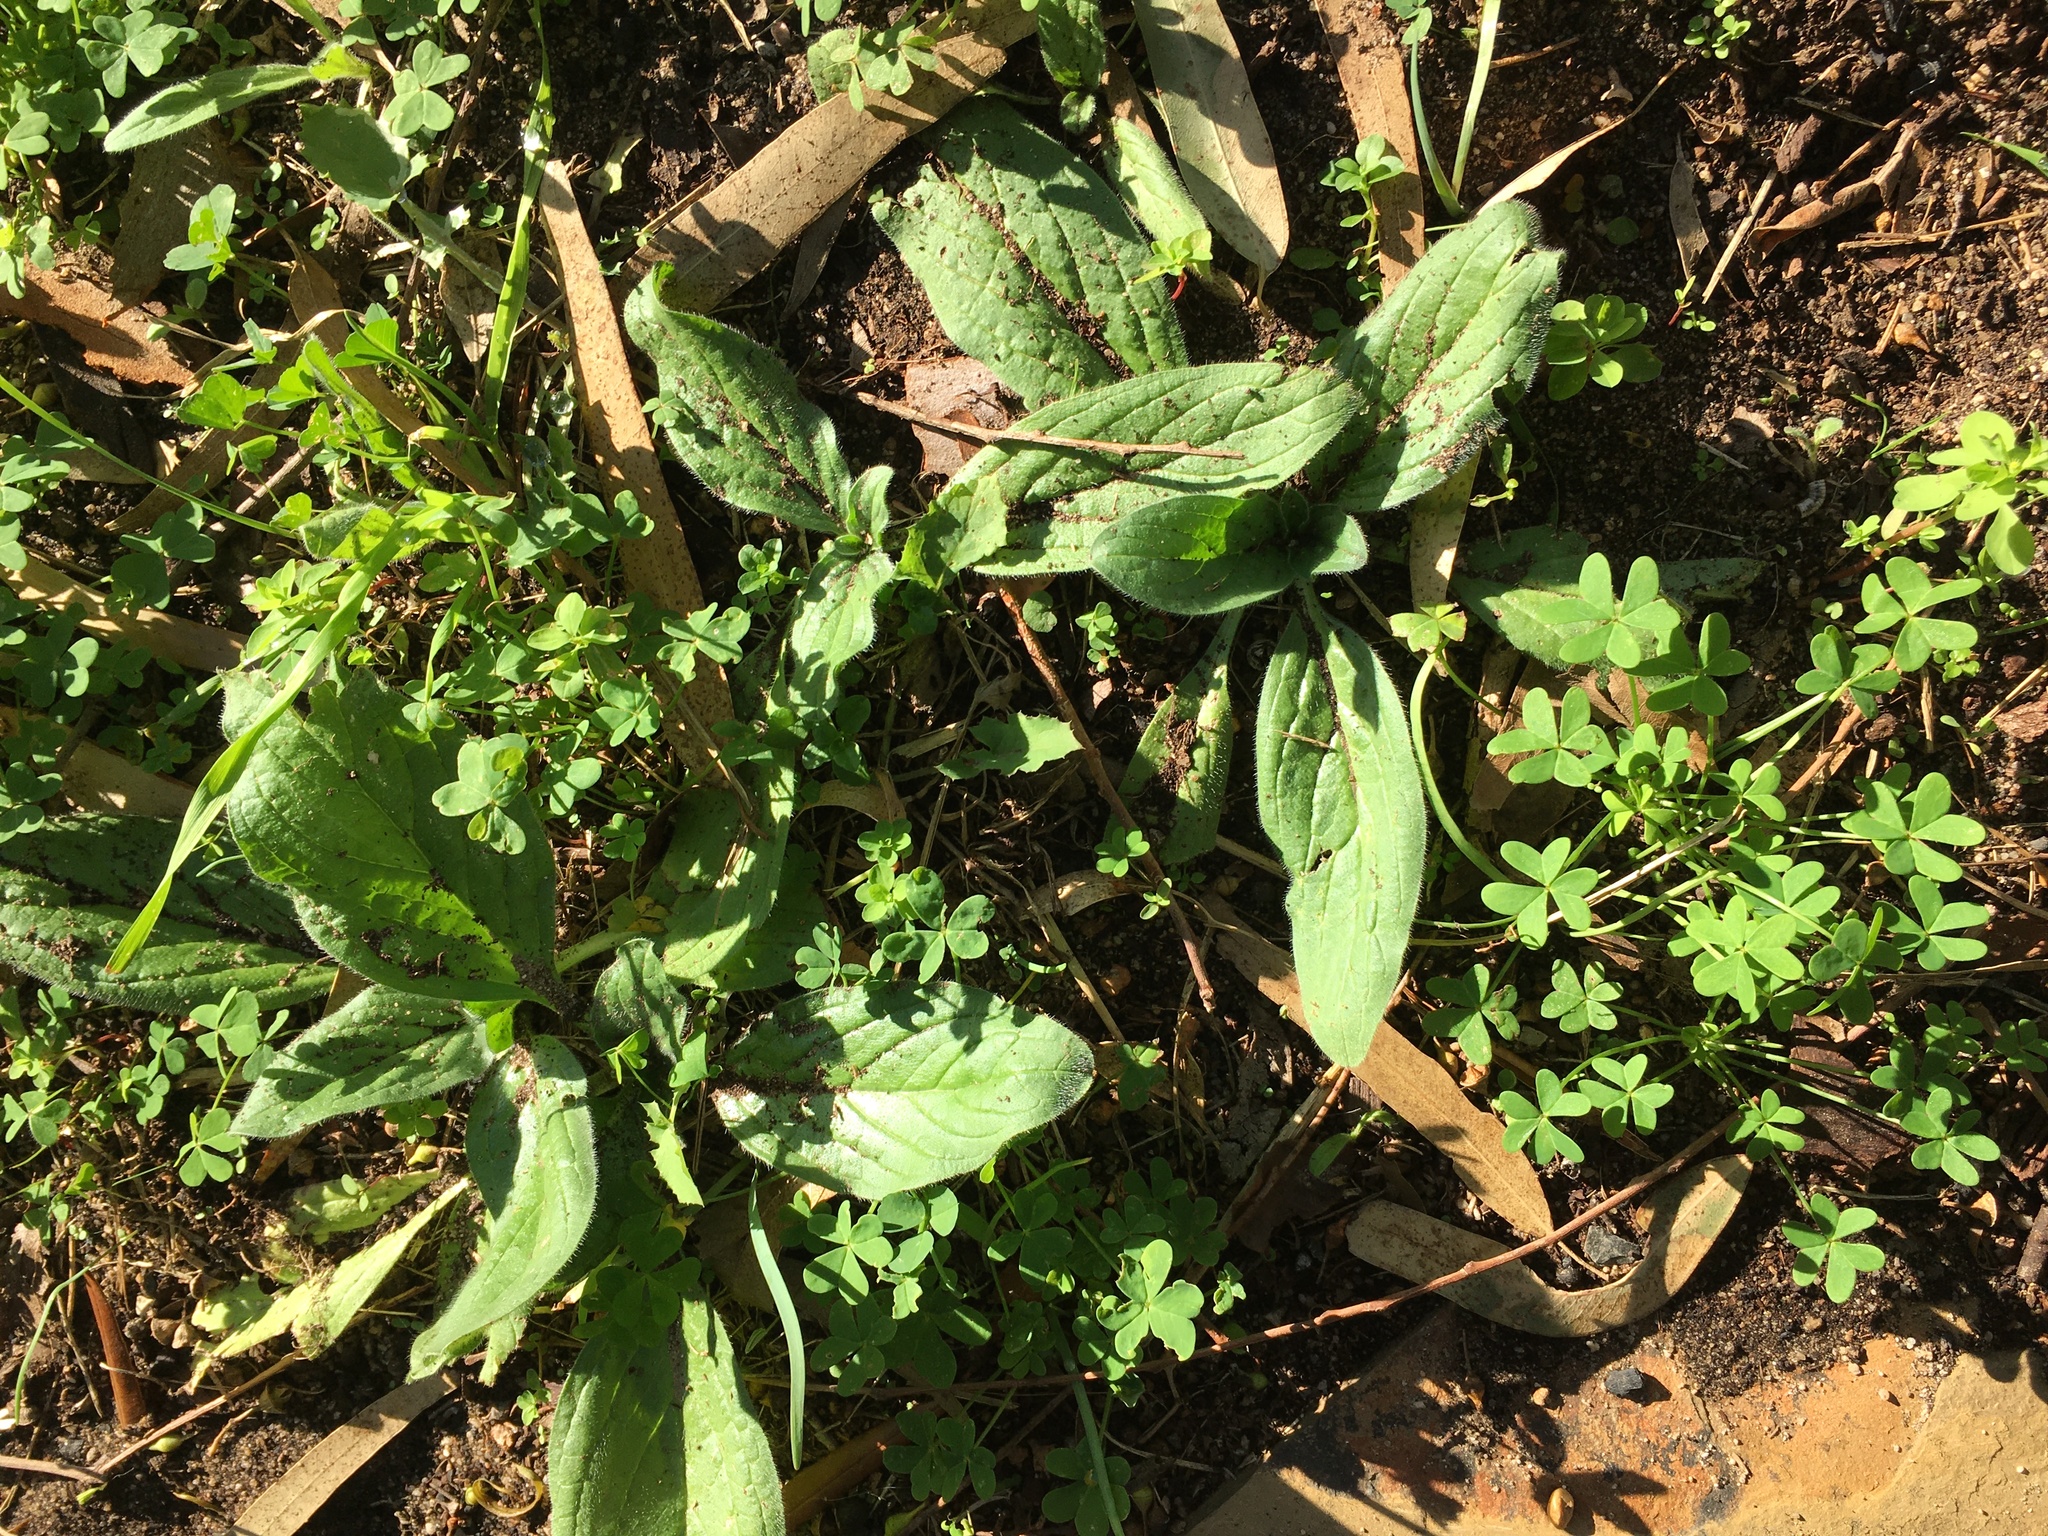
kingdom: Plantae
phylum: Tracheophyta
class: Magnoliopsida
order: Boraginales
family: Boraginaceae
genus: Echium
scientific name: Echium plantagineum
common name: Purple viper's-bugloss
